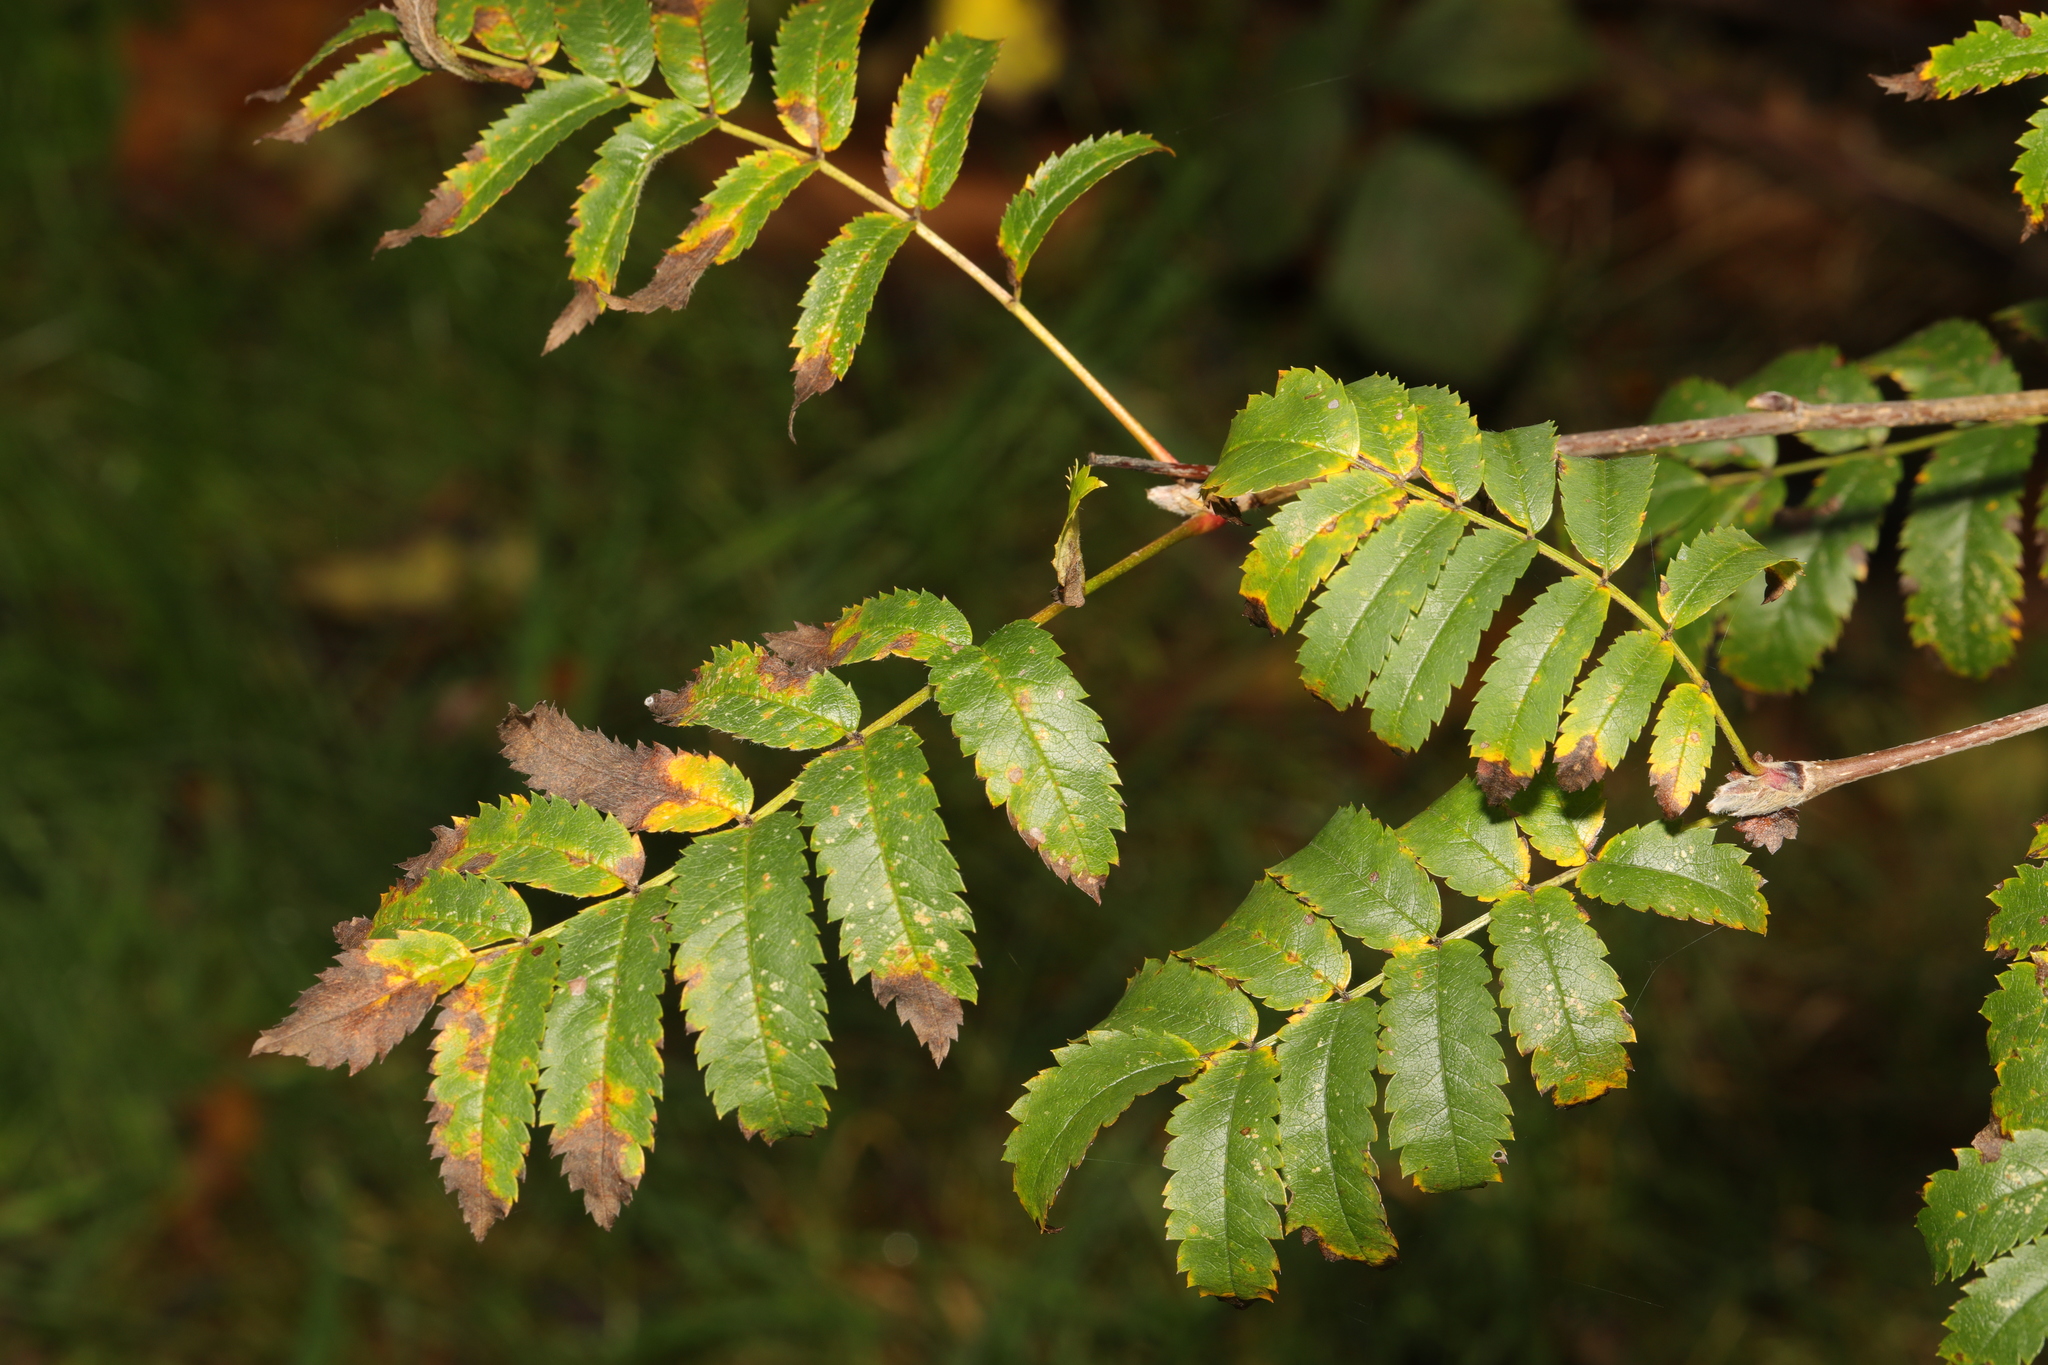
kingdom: Plantae
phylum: Tracheophyta
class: Magnoliopsida
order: Rosales
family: Rosaceae
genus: Sorbus
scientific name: Sorbus aucuparia
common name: Rowan
